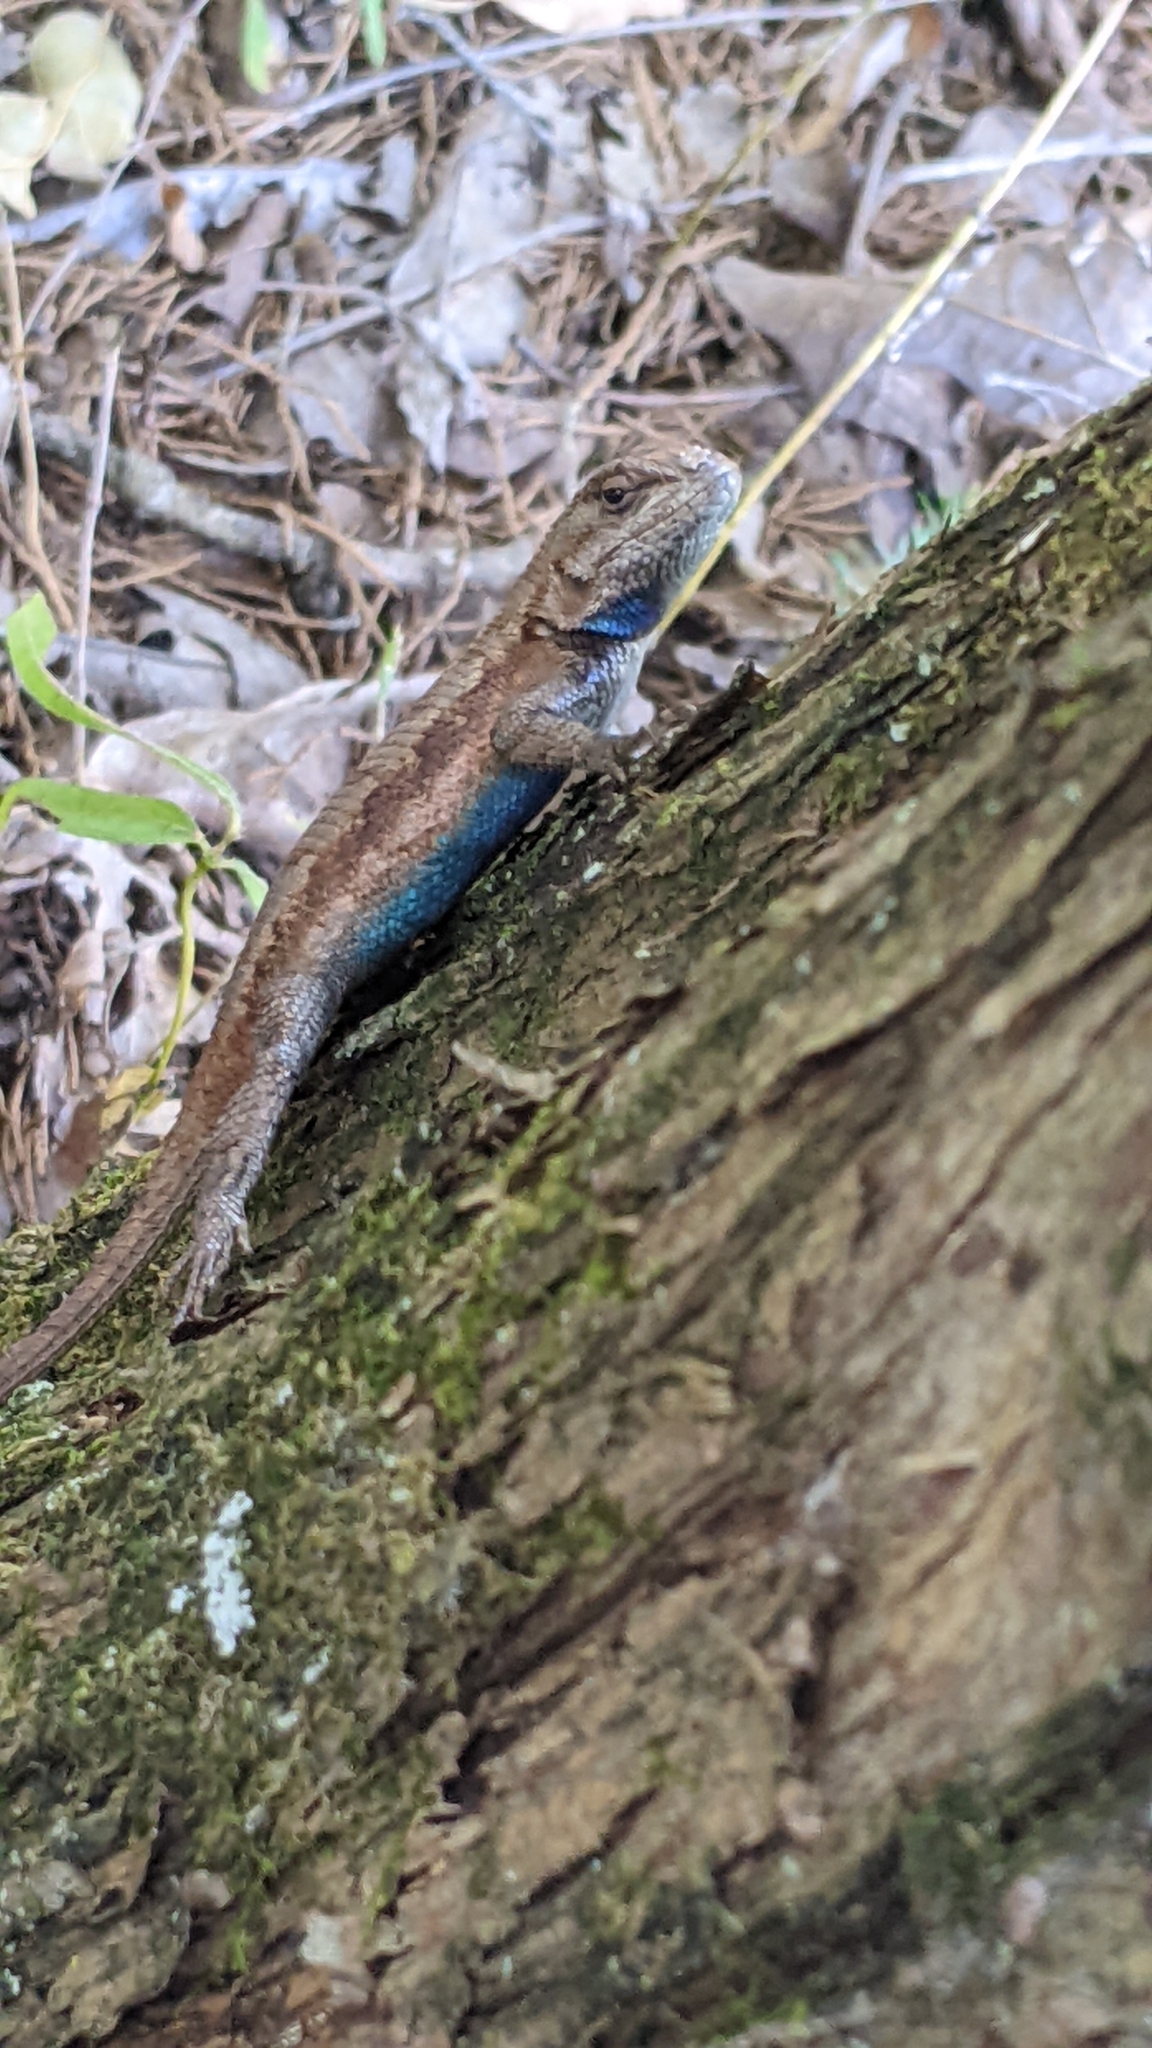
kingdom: Animalia
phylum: Chordata
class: Squamata
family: Phrynosomatidae
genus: Sceloporus
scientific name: Sceloporus consobrinus
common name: Southern prairie lizard
